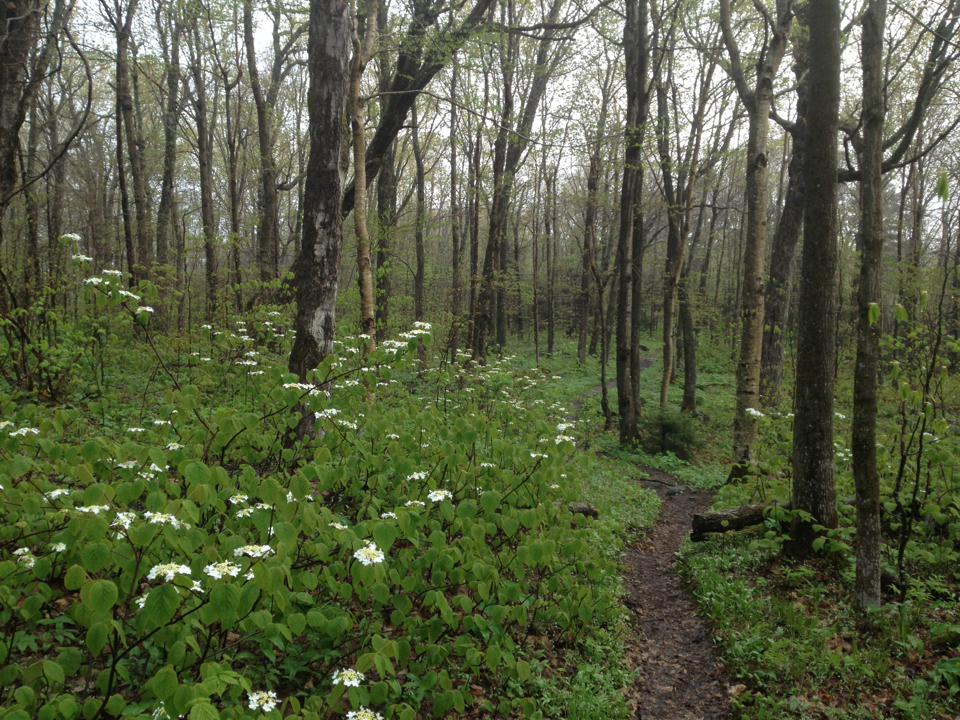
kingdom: Plantae
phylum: Tracheophyta
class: Magnoliopsida
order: Dipsacales
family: Viburnaceae
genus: Viburnum
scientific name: Viburnum lantanoides
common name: Hobblebush
